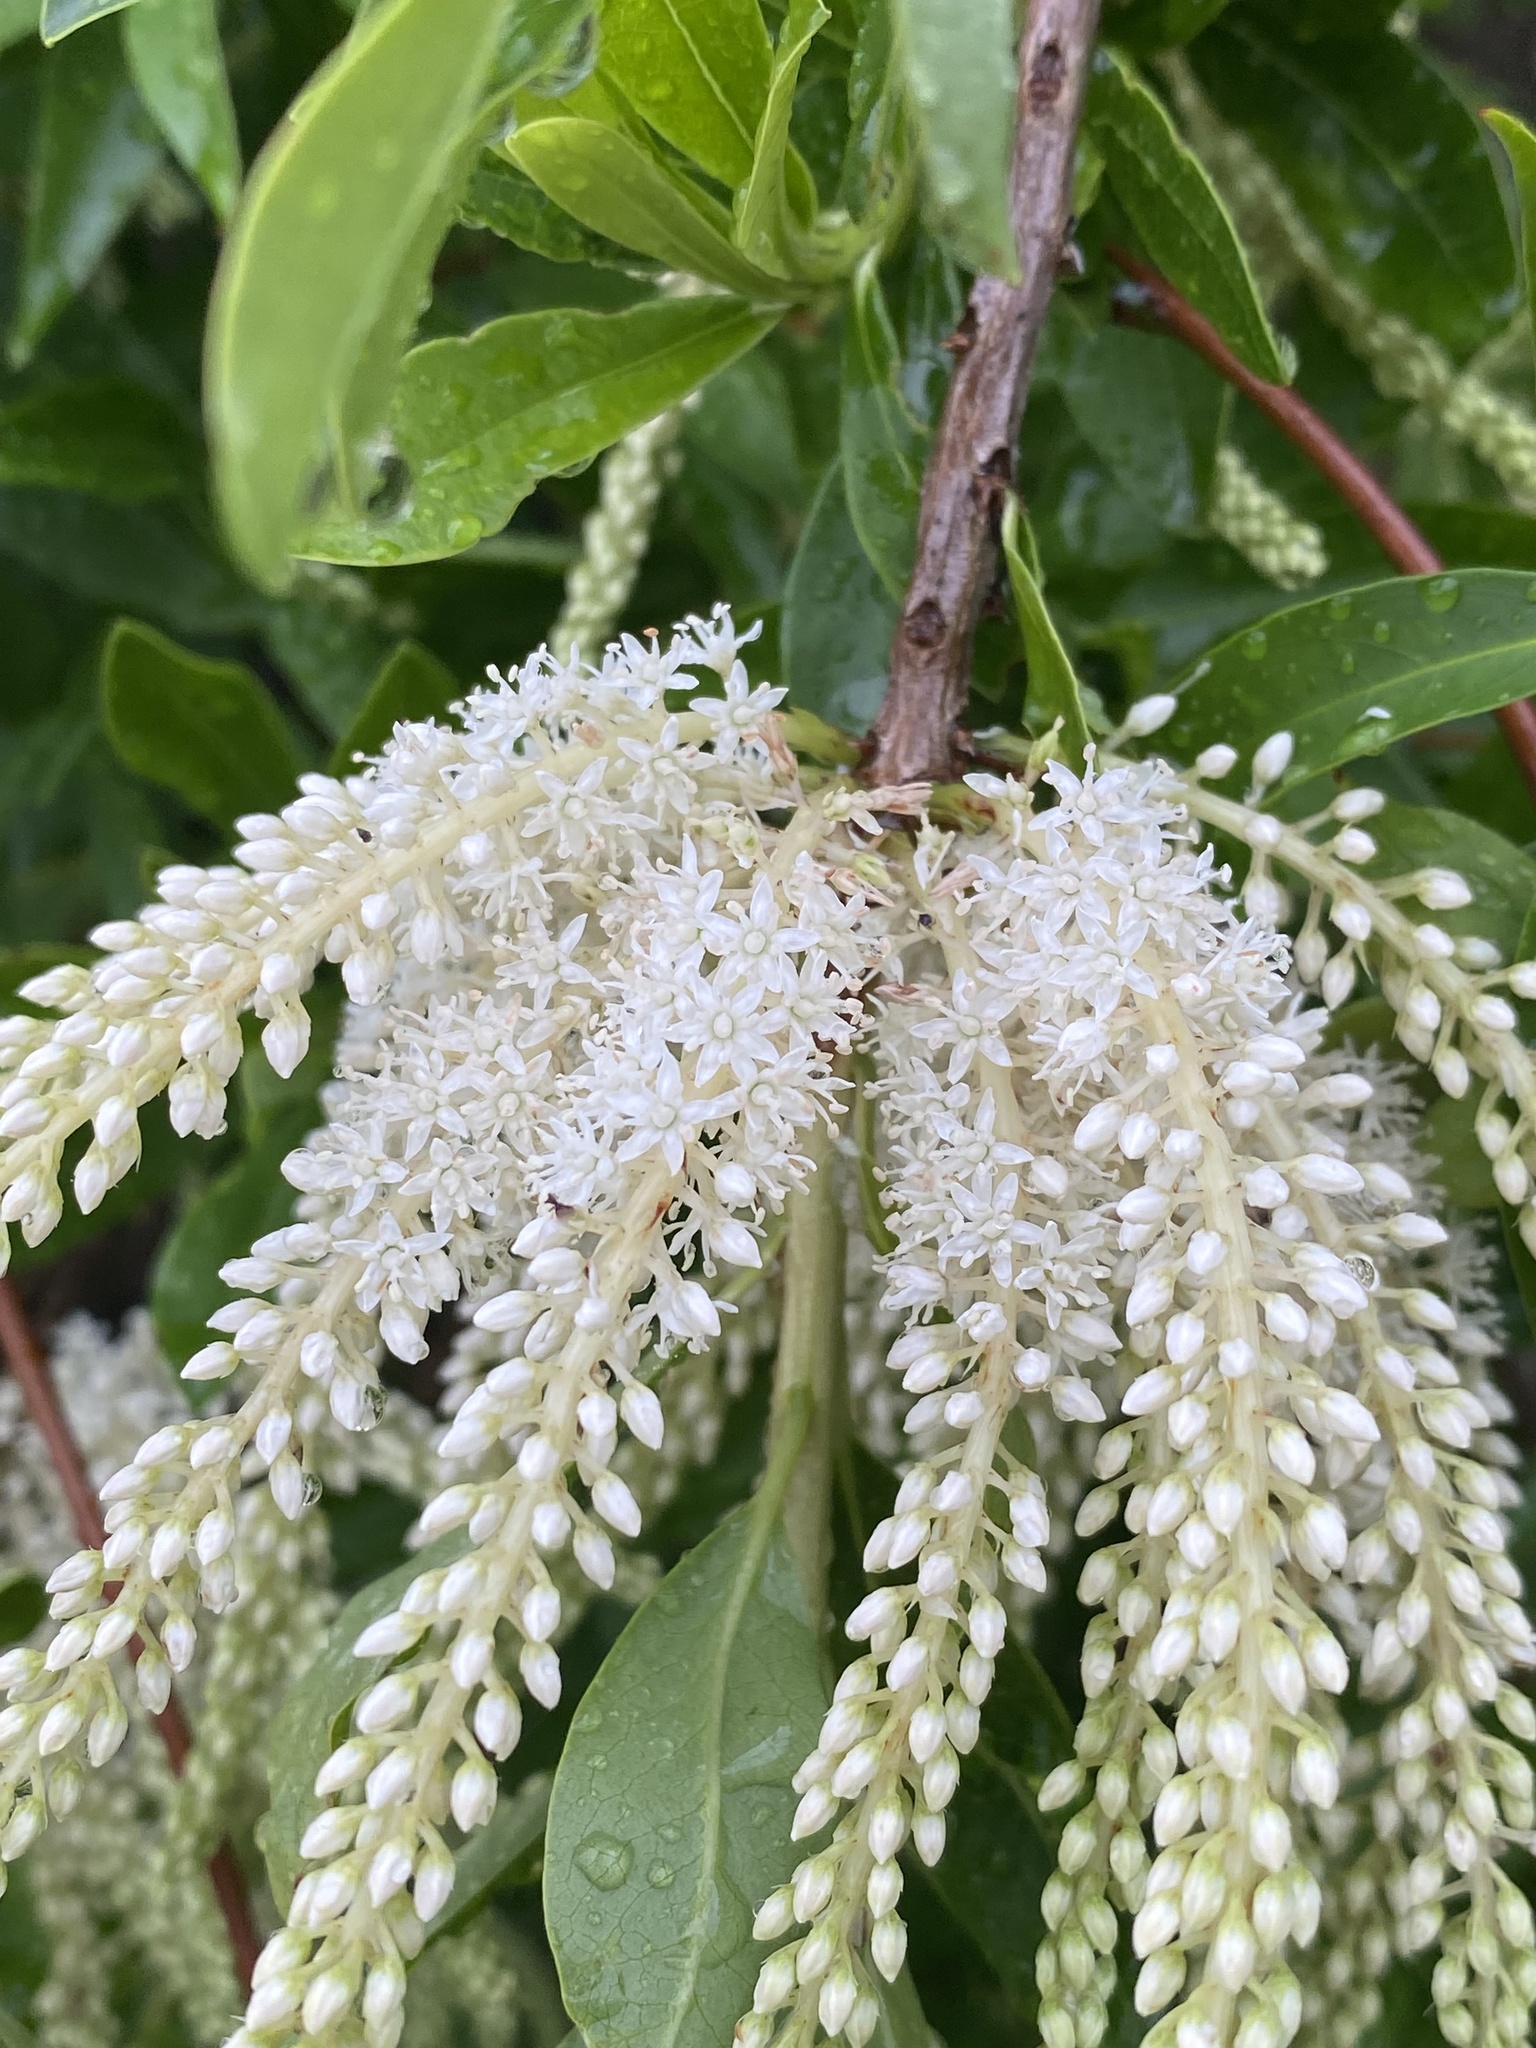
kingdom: Plantae
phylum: Tracheophyta
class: Magnoliopsida
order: Ericales
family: Cyrillaceae
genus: Cyrilla
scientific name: Cyrilla racemiflora
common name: Black titi
